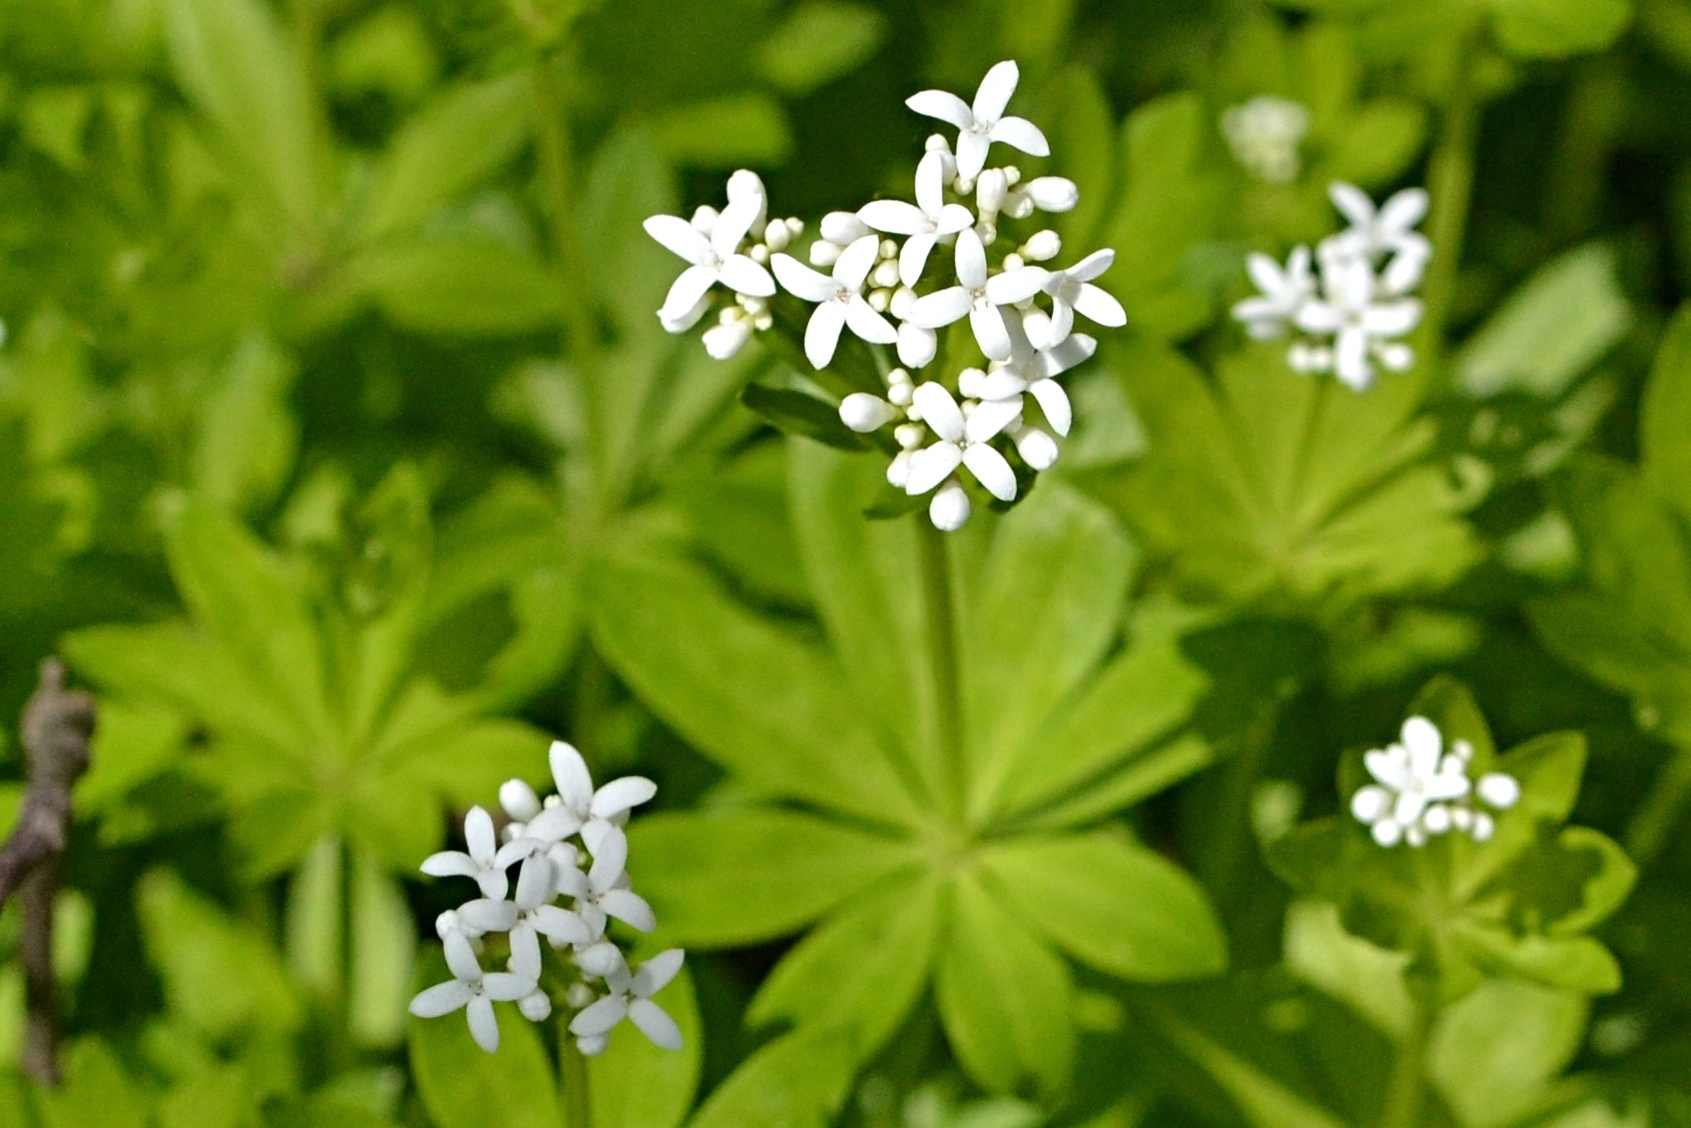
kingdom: Plantae
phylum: Tracheophyta
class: Magnoliopsida
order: Gentianales
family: Rubiaceae
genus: Galium
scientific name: Galium odoratum
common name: Sweet woodruff
